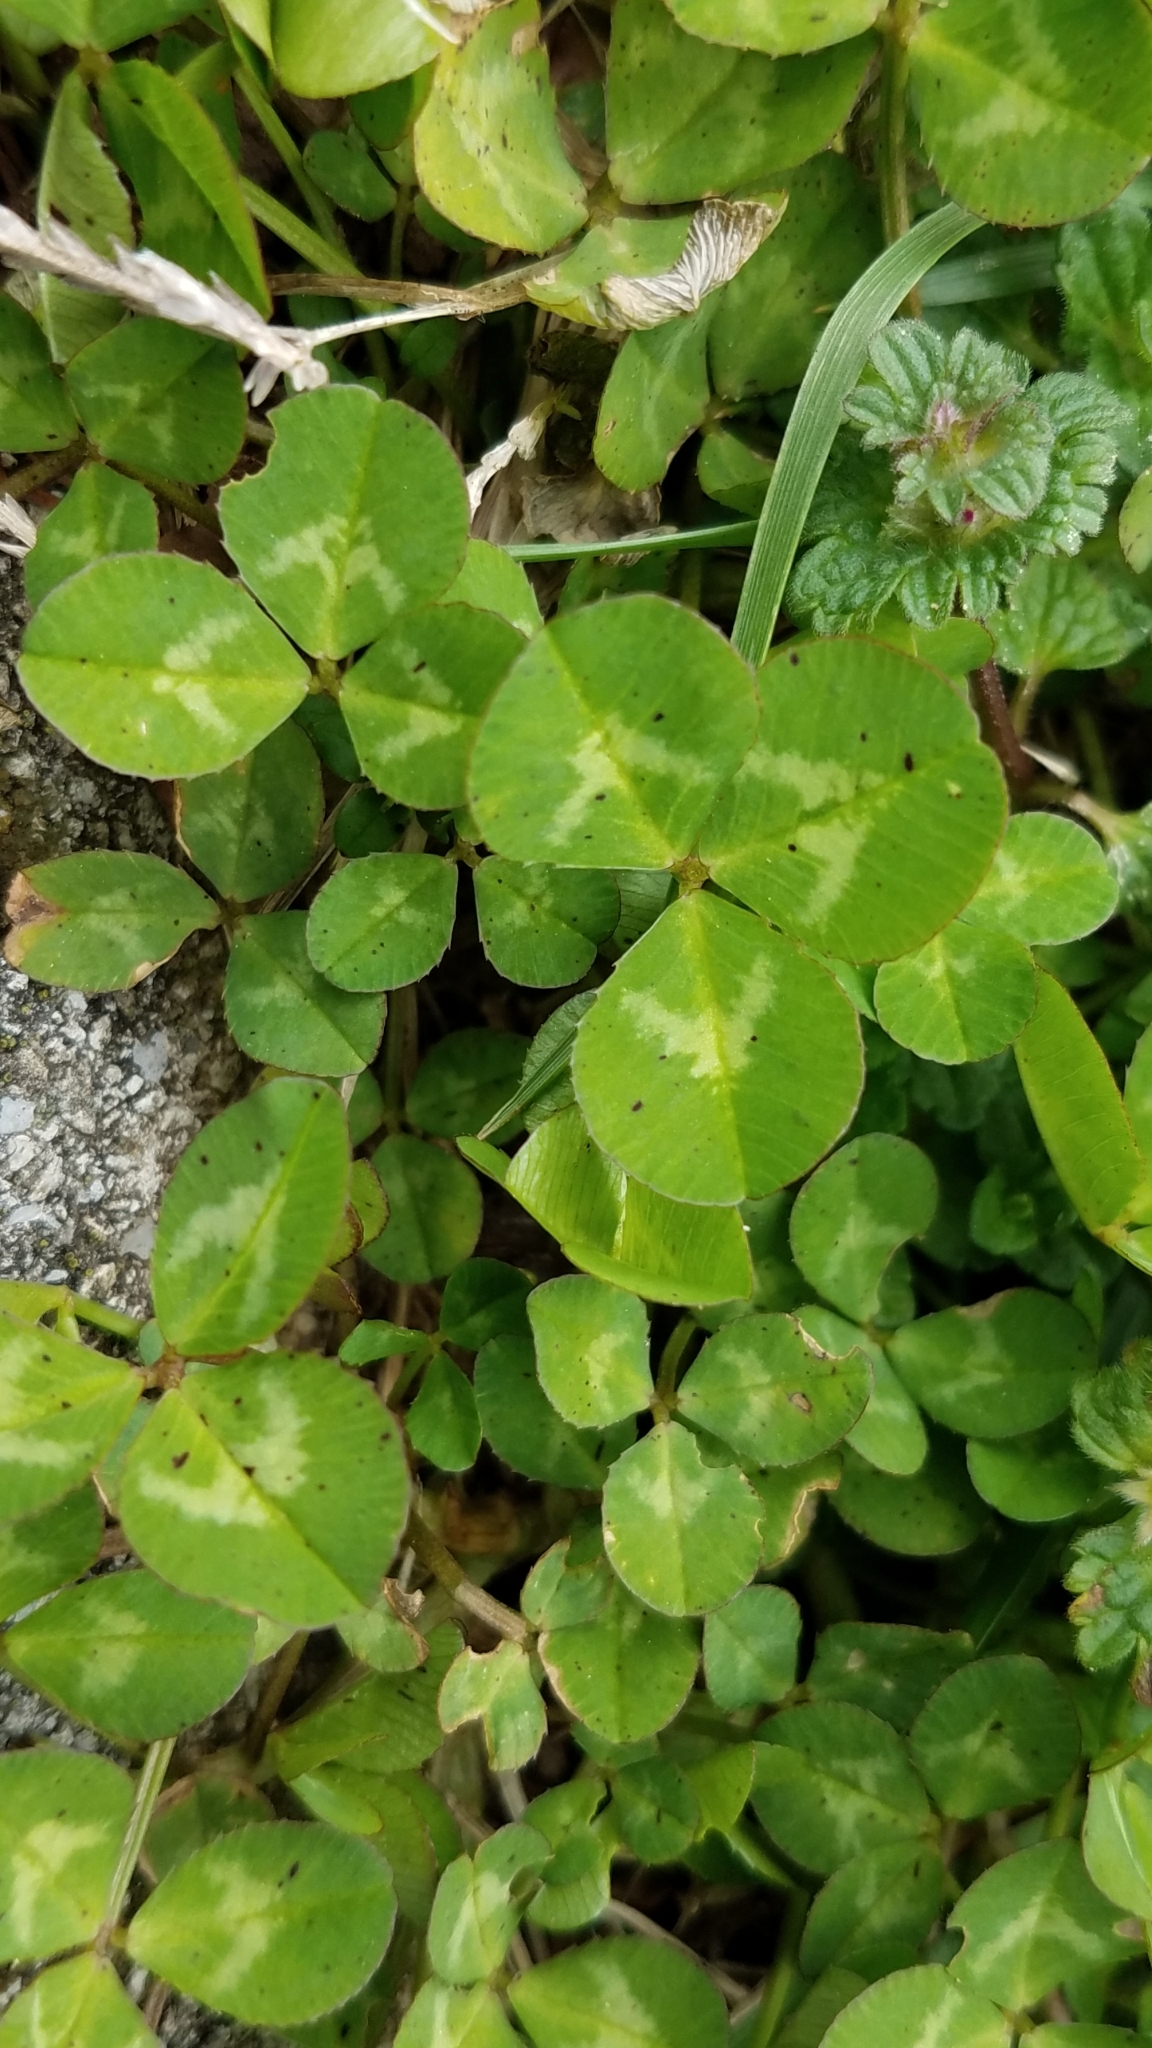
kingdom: Plantae
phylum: Tracheophyta
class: Magnoliopsida
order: Fabales
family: Fabaceae
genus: Trifolium
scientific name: Trifolium repens
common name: White clover
